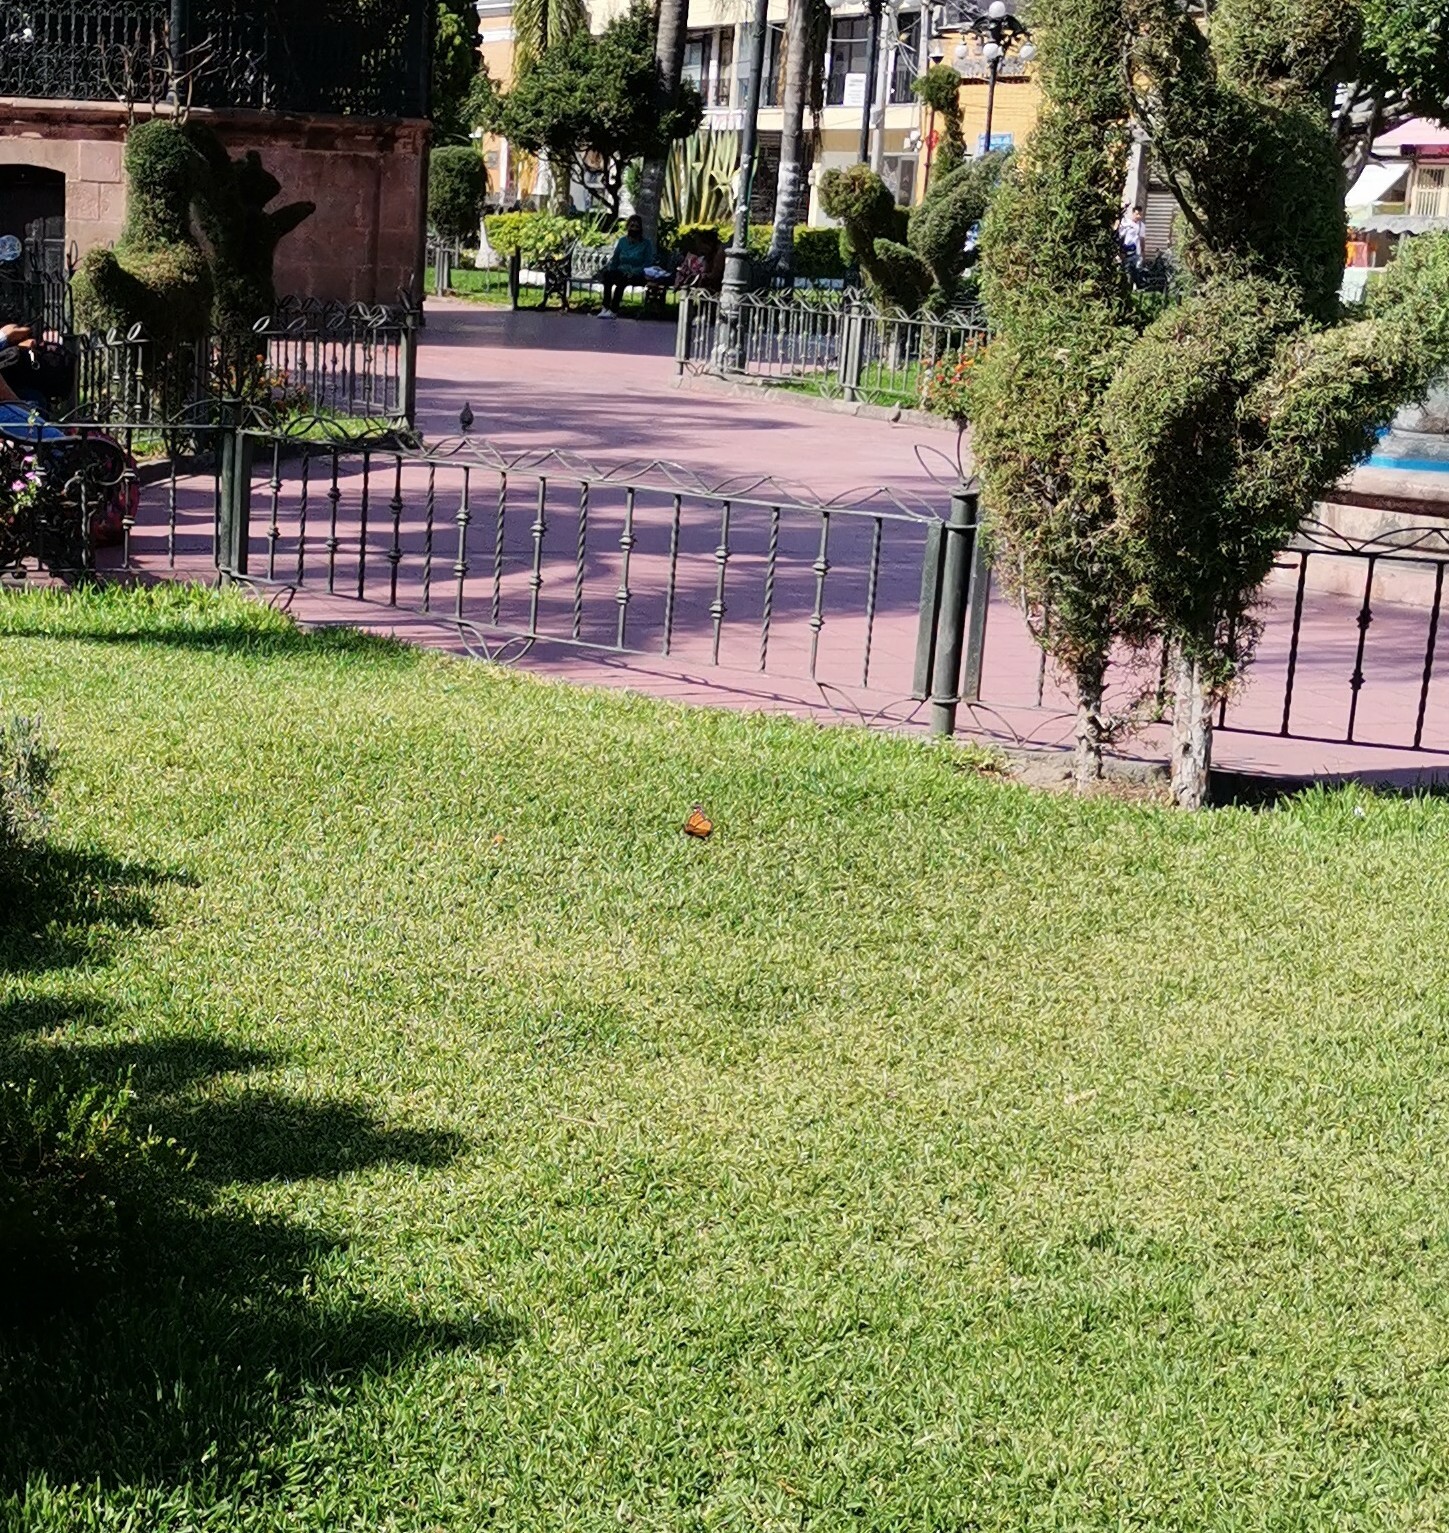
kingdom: Animalia
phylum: Arthropoda
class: Insecta
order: Lepidoptera
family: Nymphalidae
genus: Danaus
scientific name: Danaus plexippus
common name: Monarch
